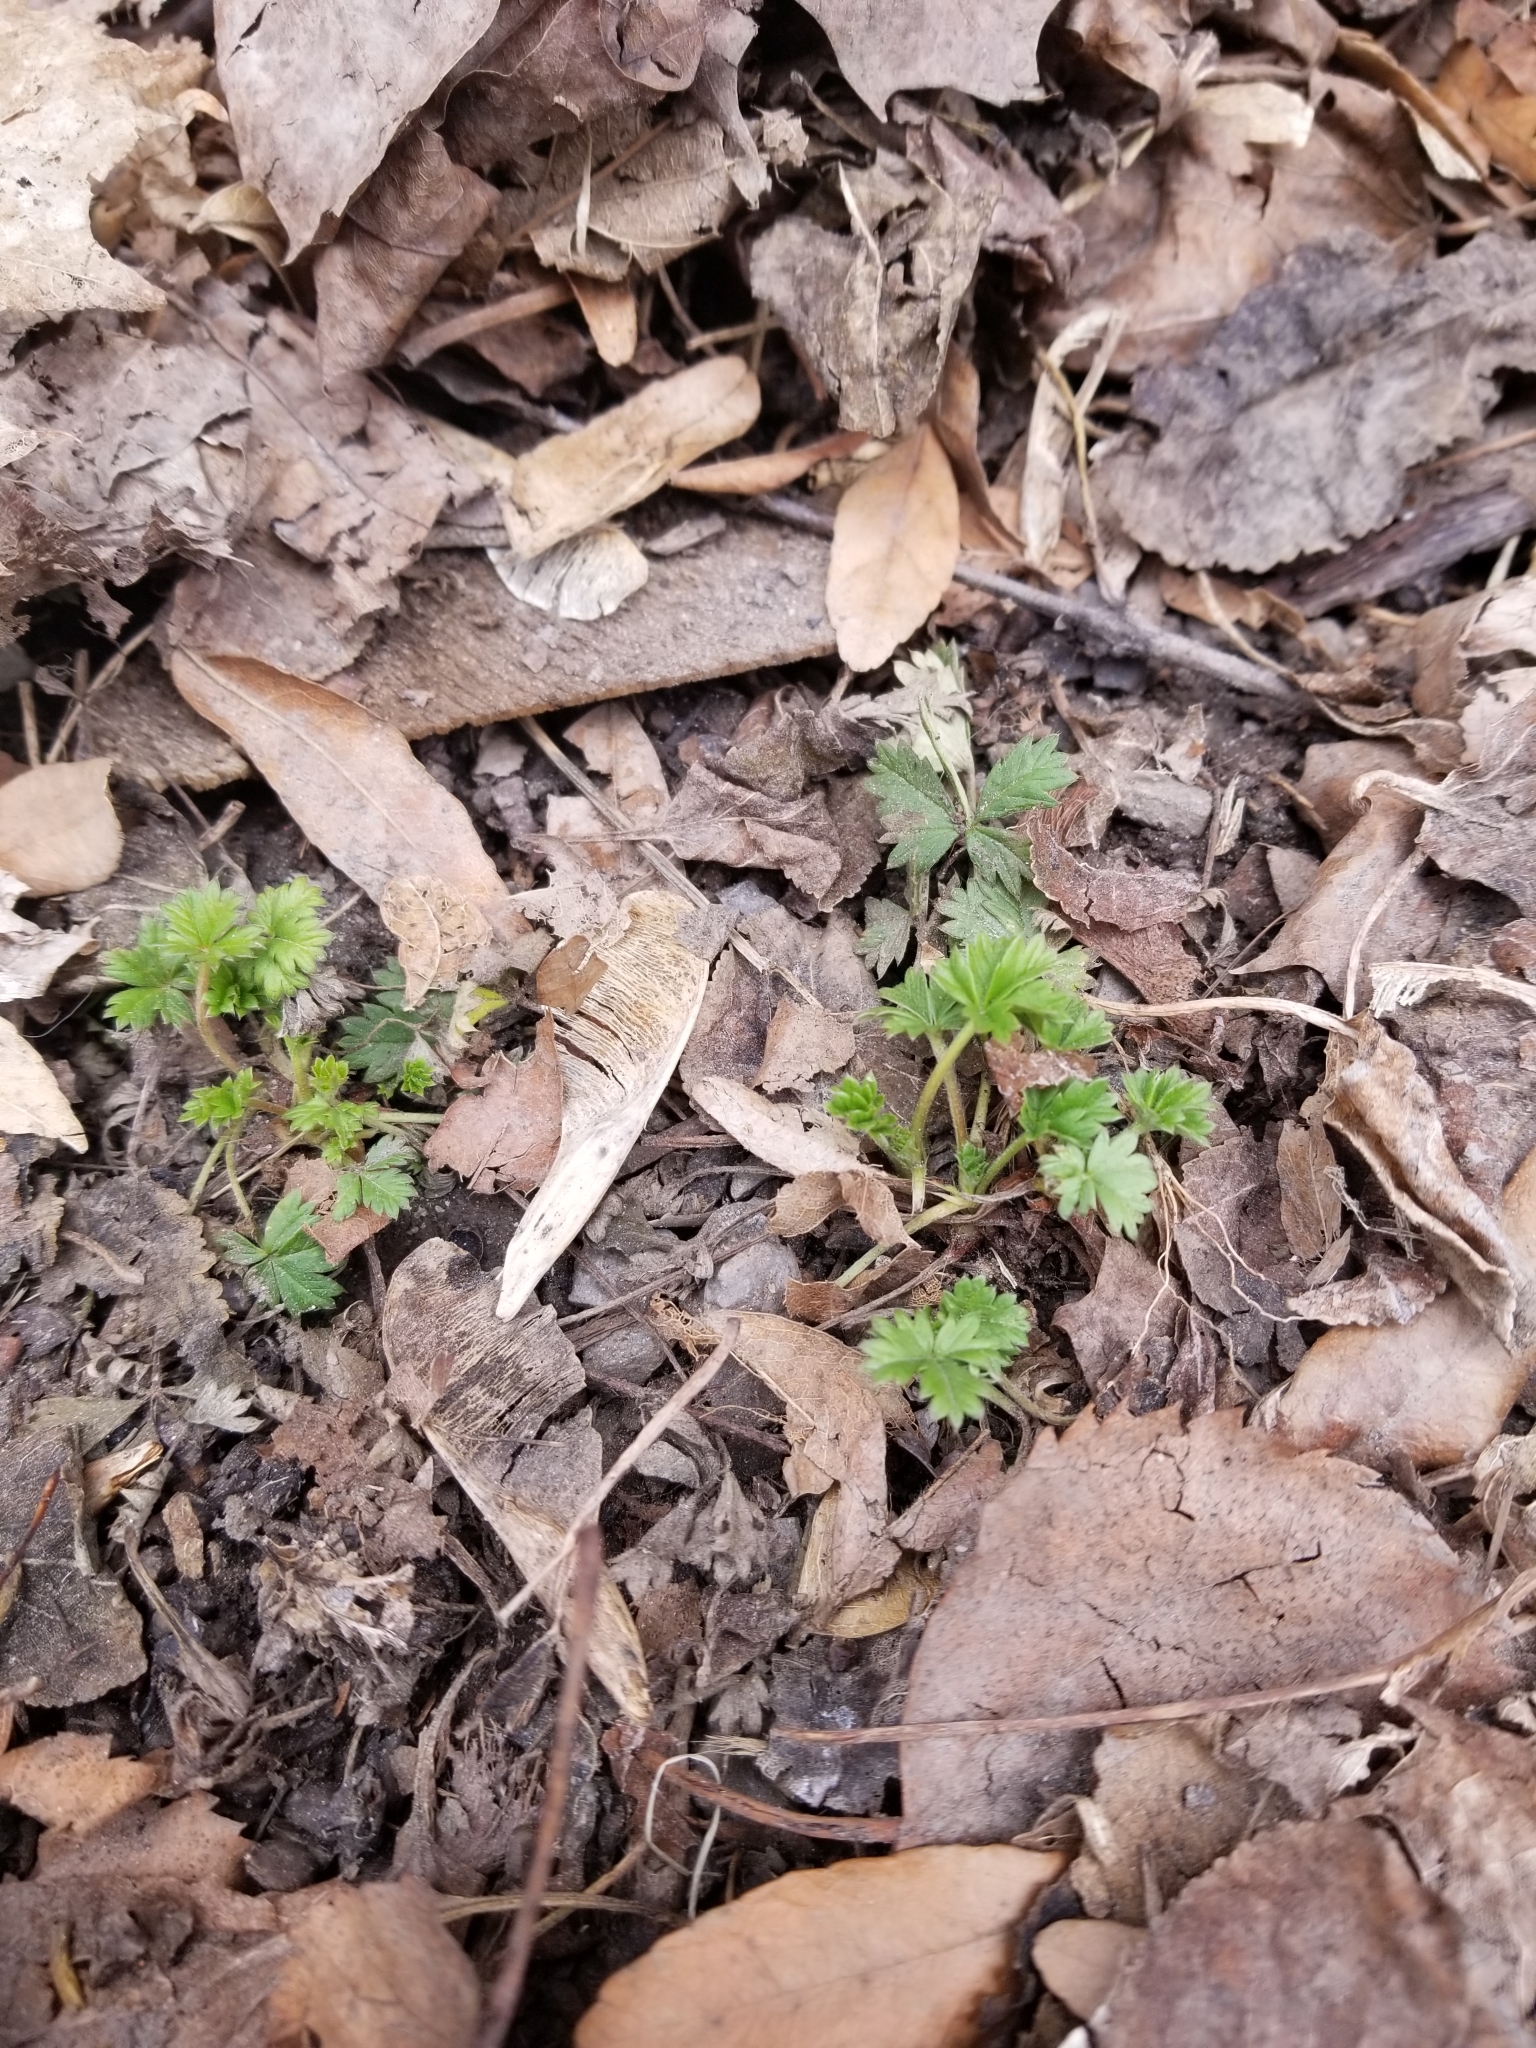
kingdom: Plantae
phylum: Tracheophyta
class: Magnoliopsida
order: Rosales
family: Rosaceae
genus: Potentilla
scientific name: Potentilla argentea
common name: Hoary cinquefoil
